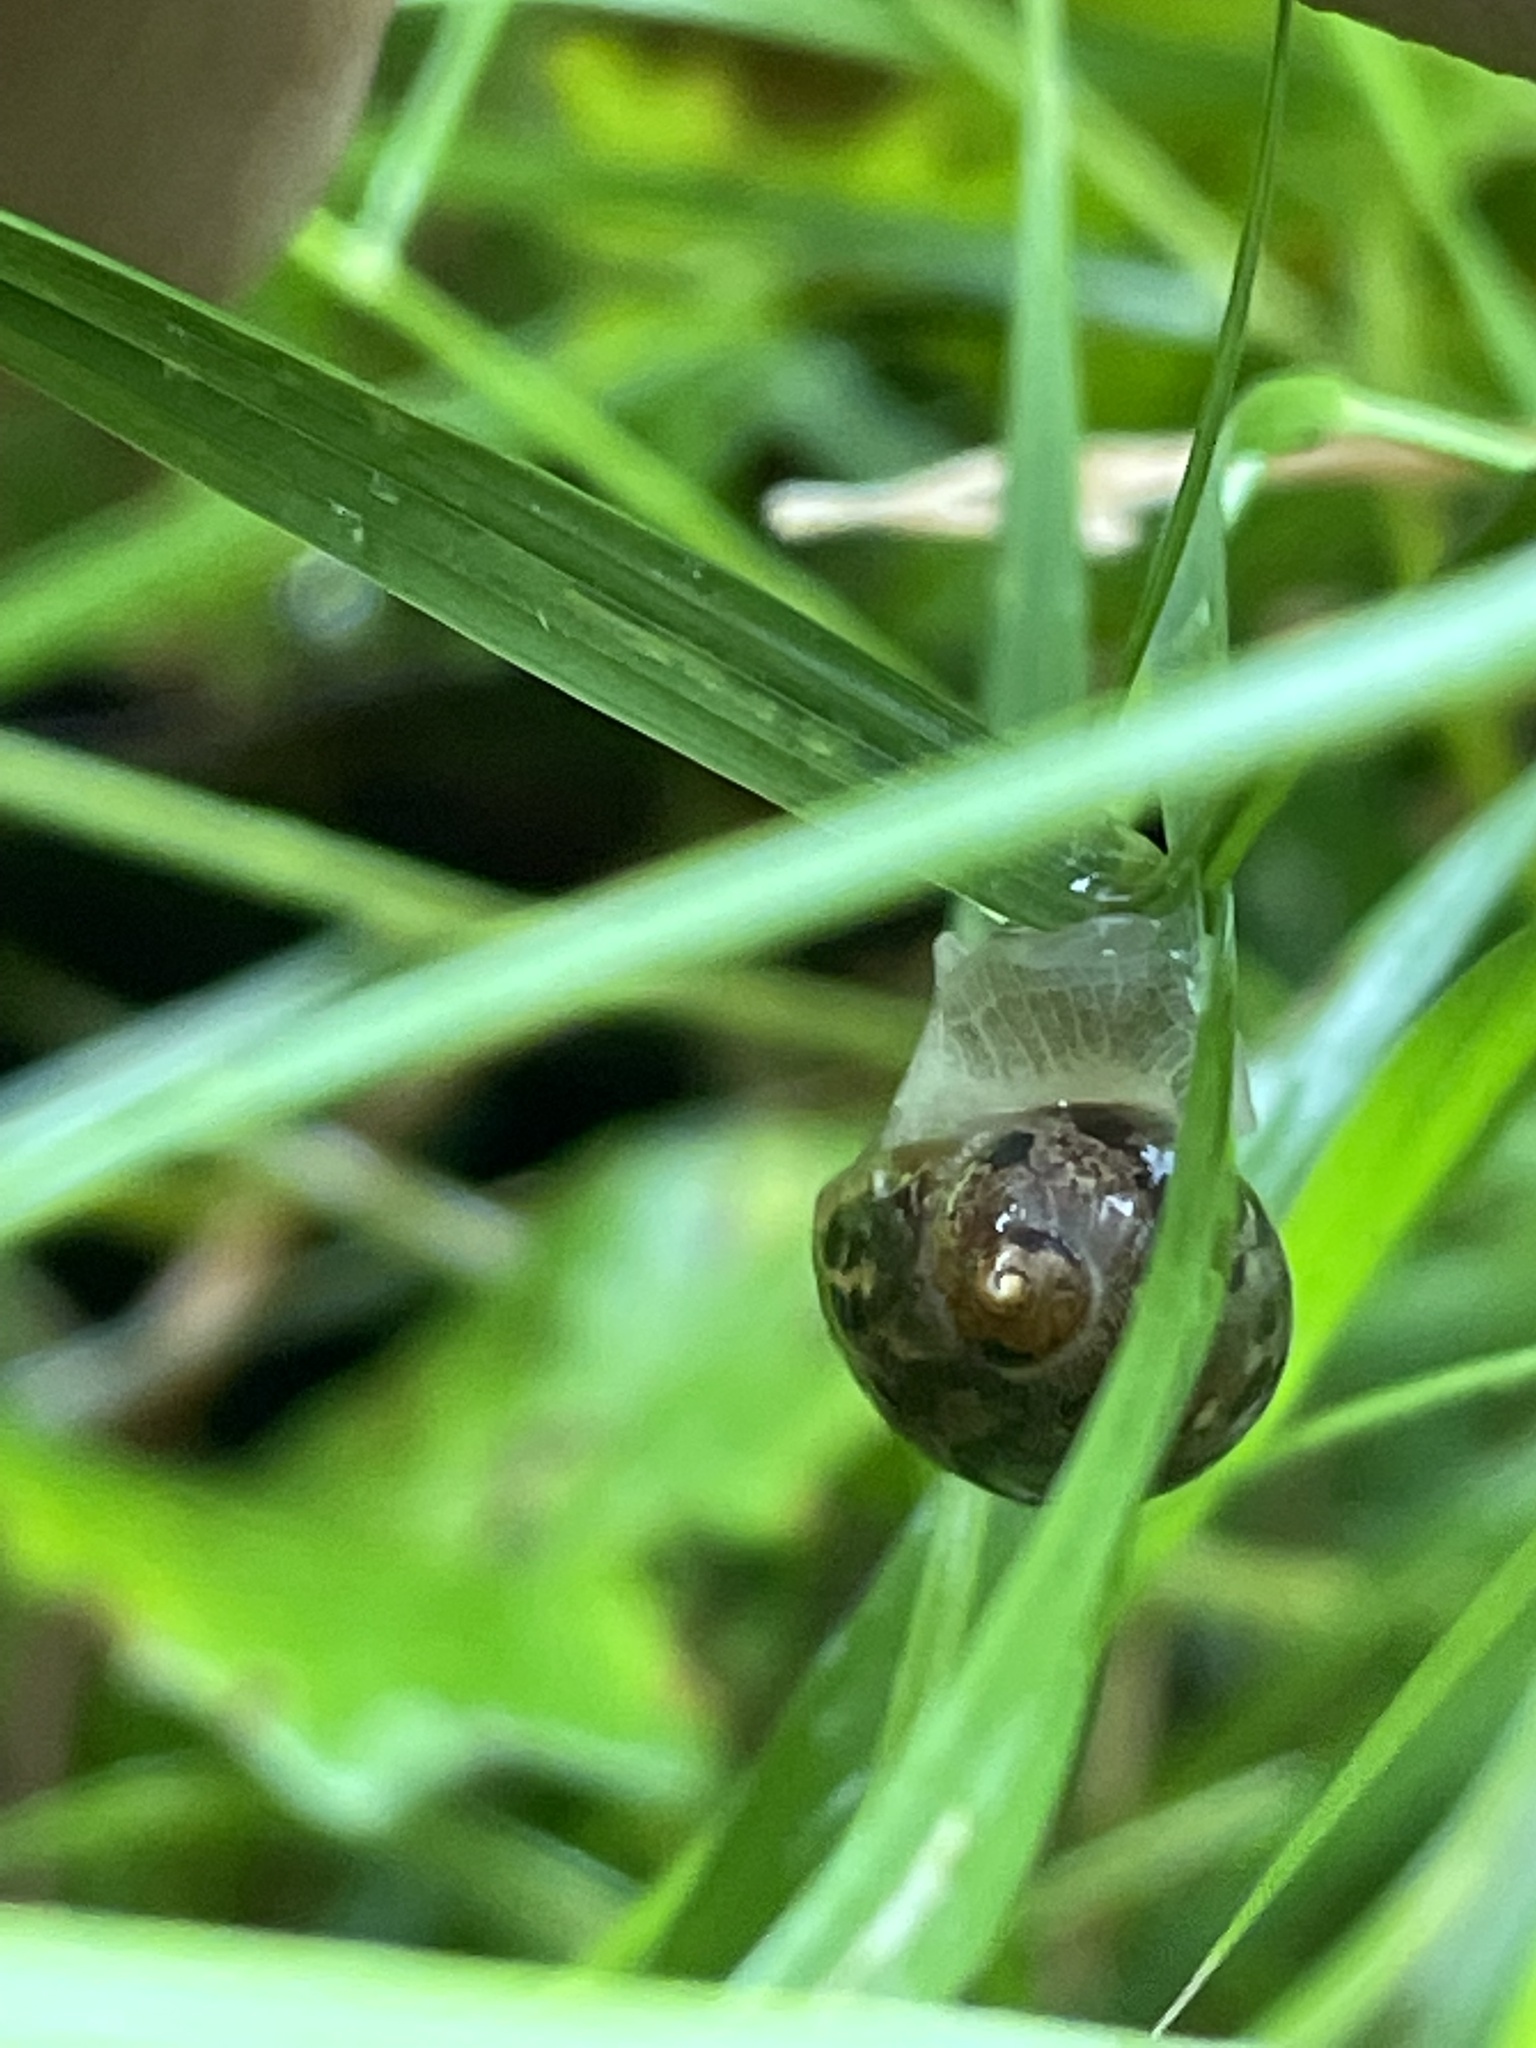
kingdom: Animalia
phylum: Mollusca
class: Gastropoda
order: Stylommatophora
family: Succineidae
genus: Succinea
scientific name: Succinea putris
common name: European ambersnail
